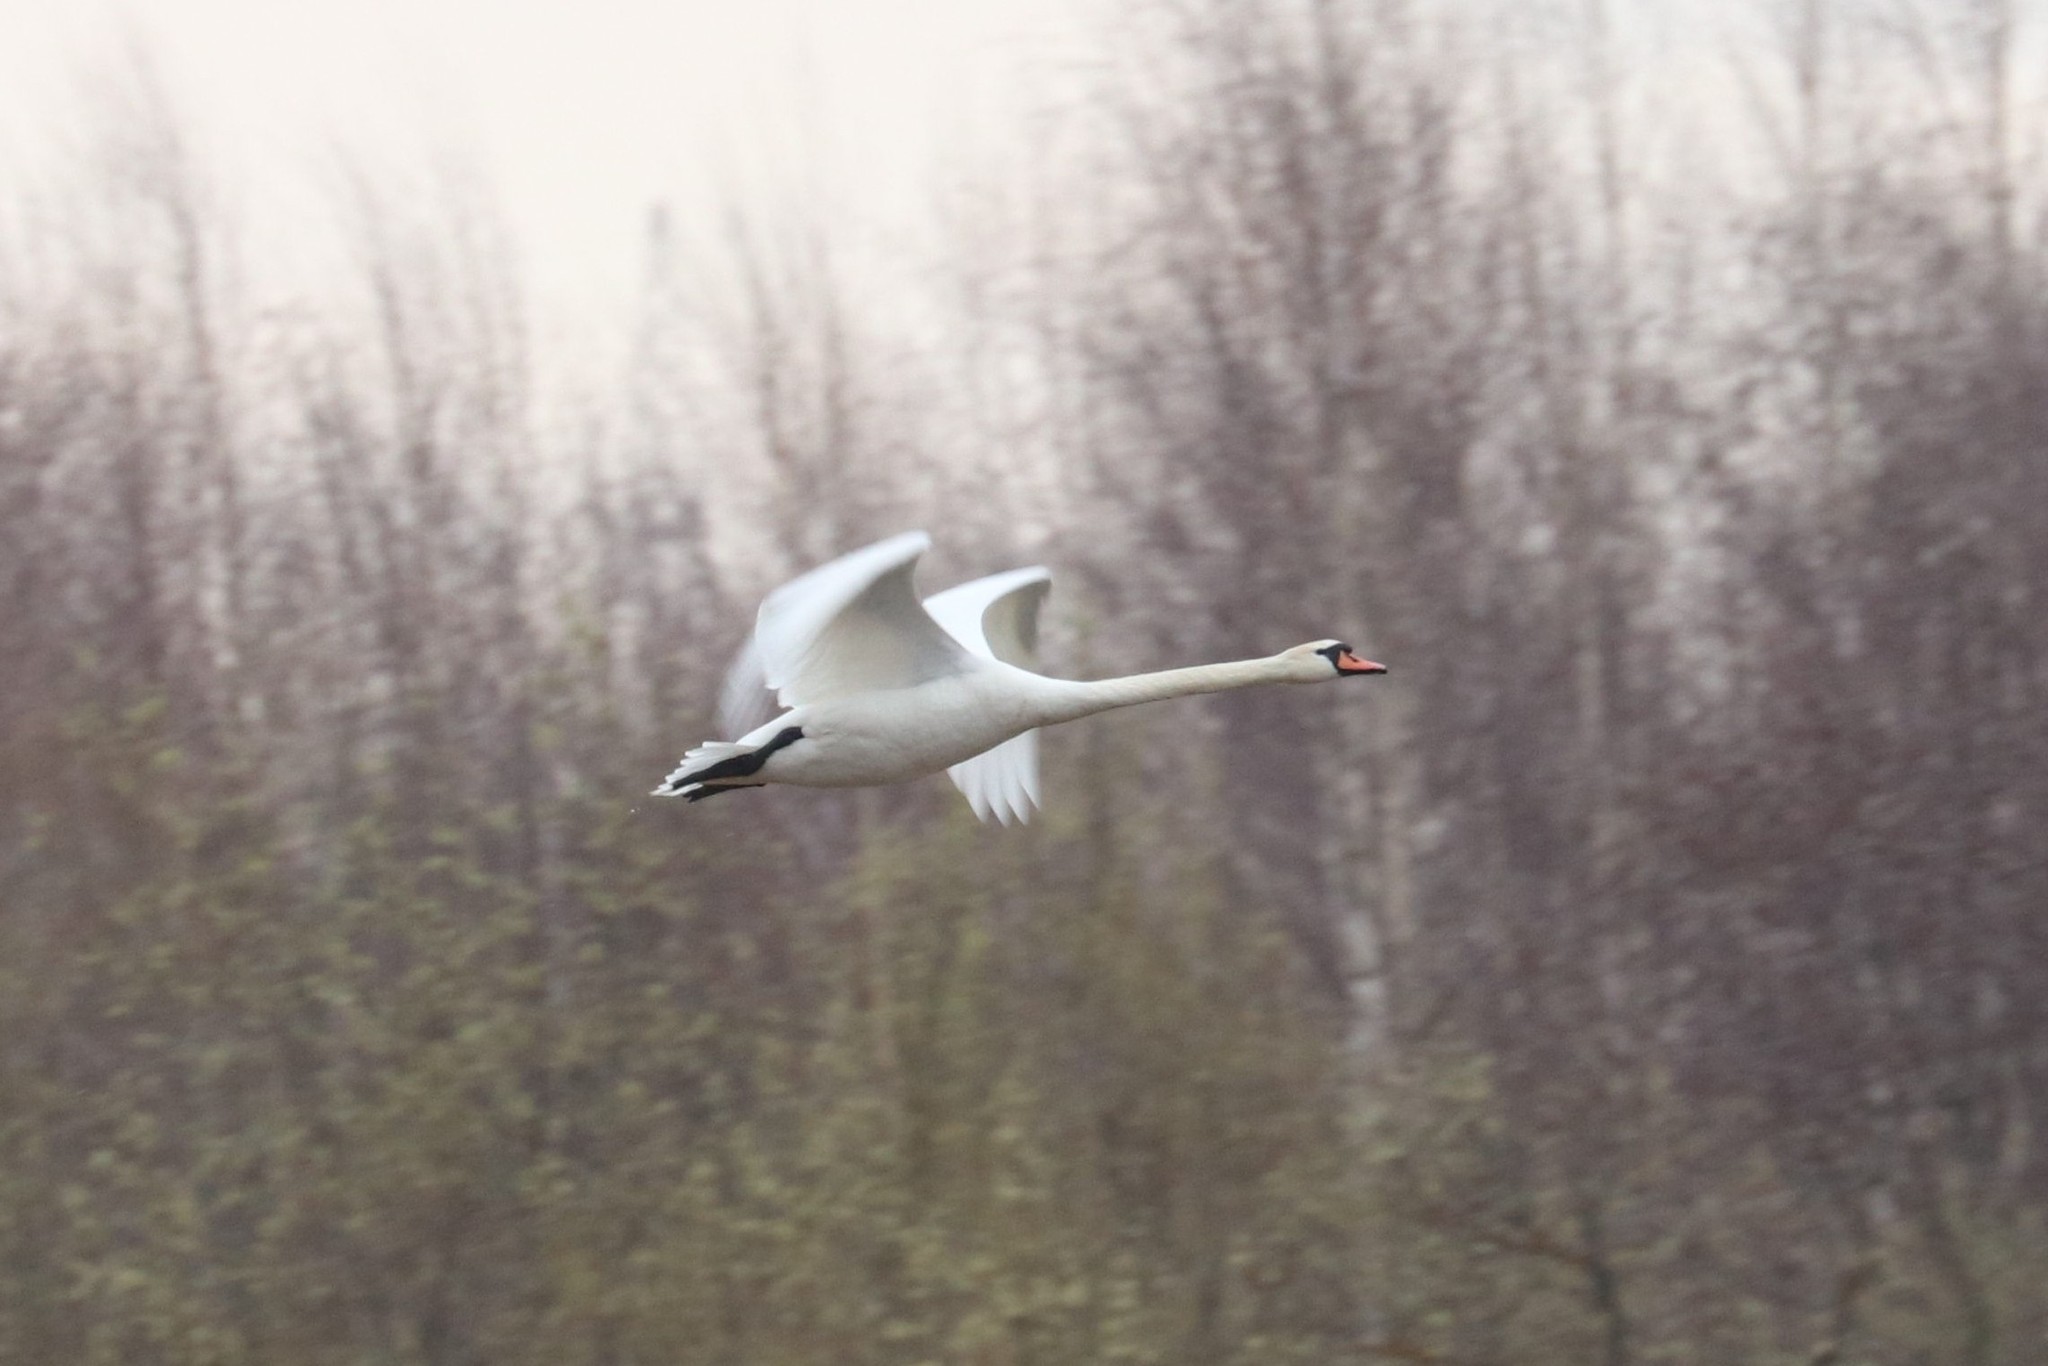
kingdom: Animalia
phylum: Chordata
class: Aves
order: Anseriformes
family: Anatidae
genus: Cygnus
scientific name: Cygnus olor
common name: Mute swan
